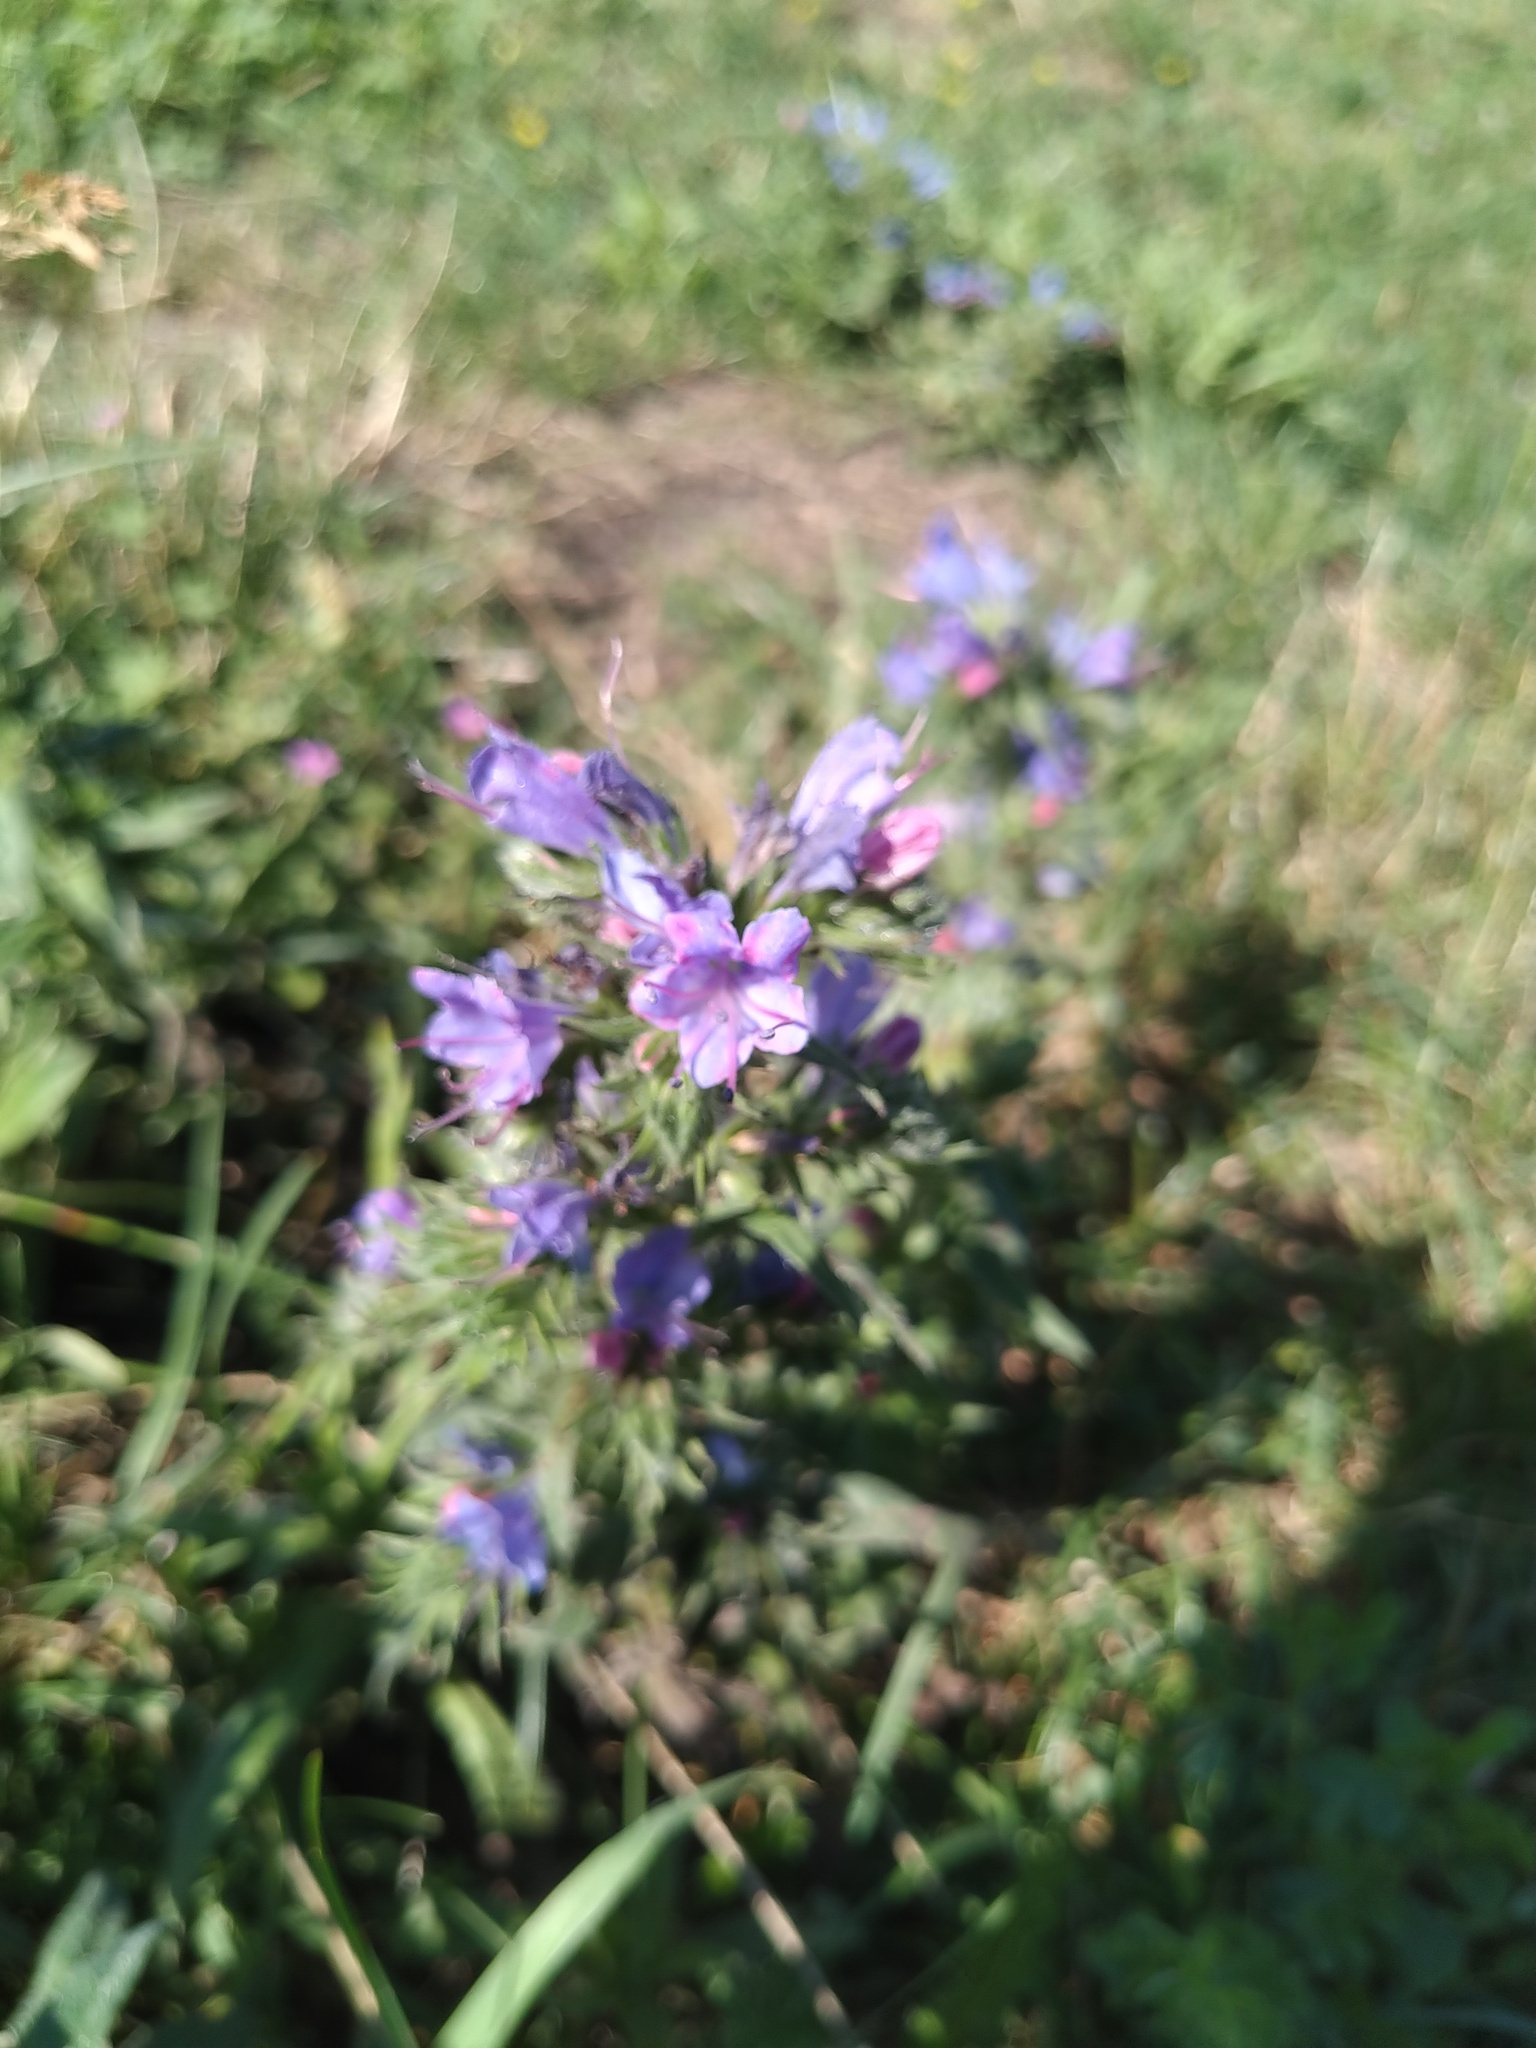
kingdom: Plantae
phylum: Tracheophyta
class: Magnoliopsida
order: Boraginales
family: Boraginaceae
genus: Echium
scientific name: Echium vulgare
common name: Common viper's bugloss
